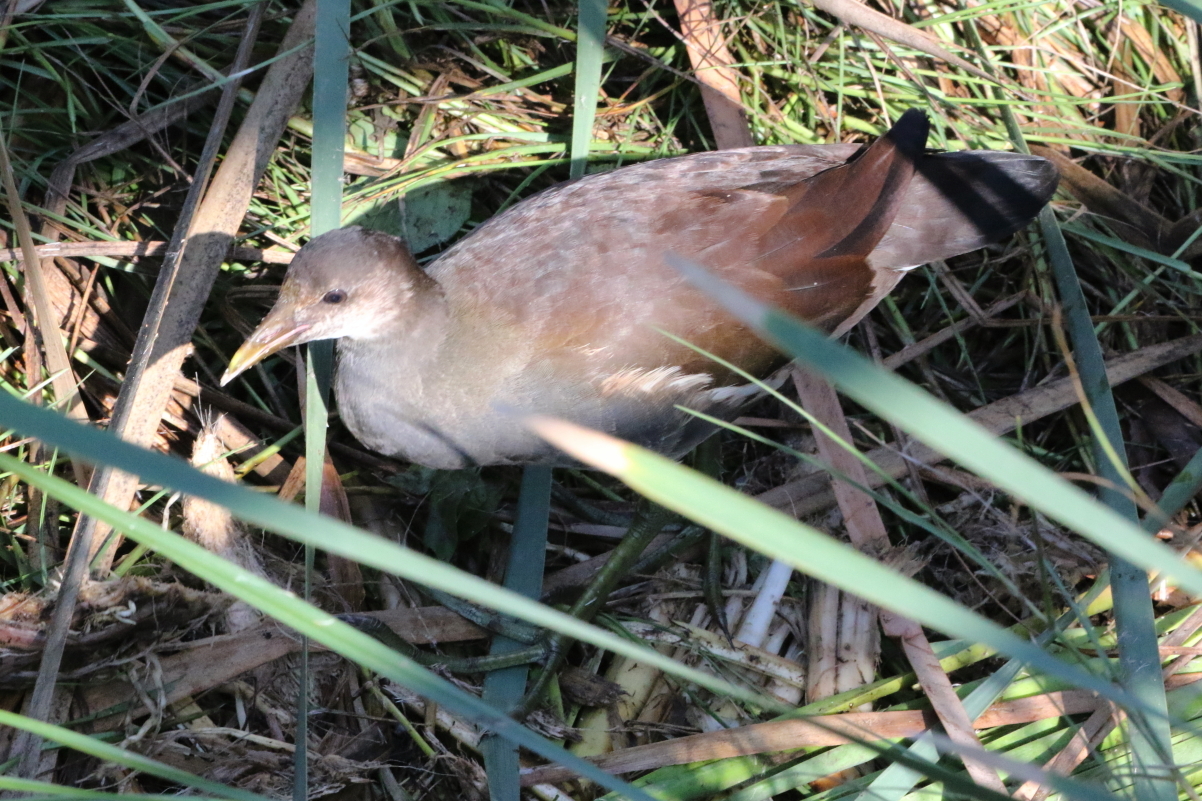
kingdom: Animalia
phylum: Chordata
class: Aves
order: Gruiformes
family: Rallidae
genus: Gallinula
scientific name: Gallinula chloropus
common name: Common moorhen
